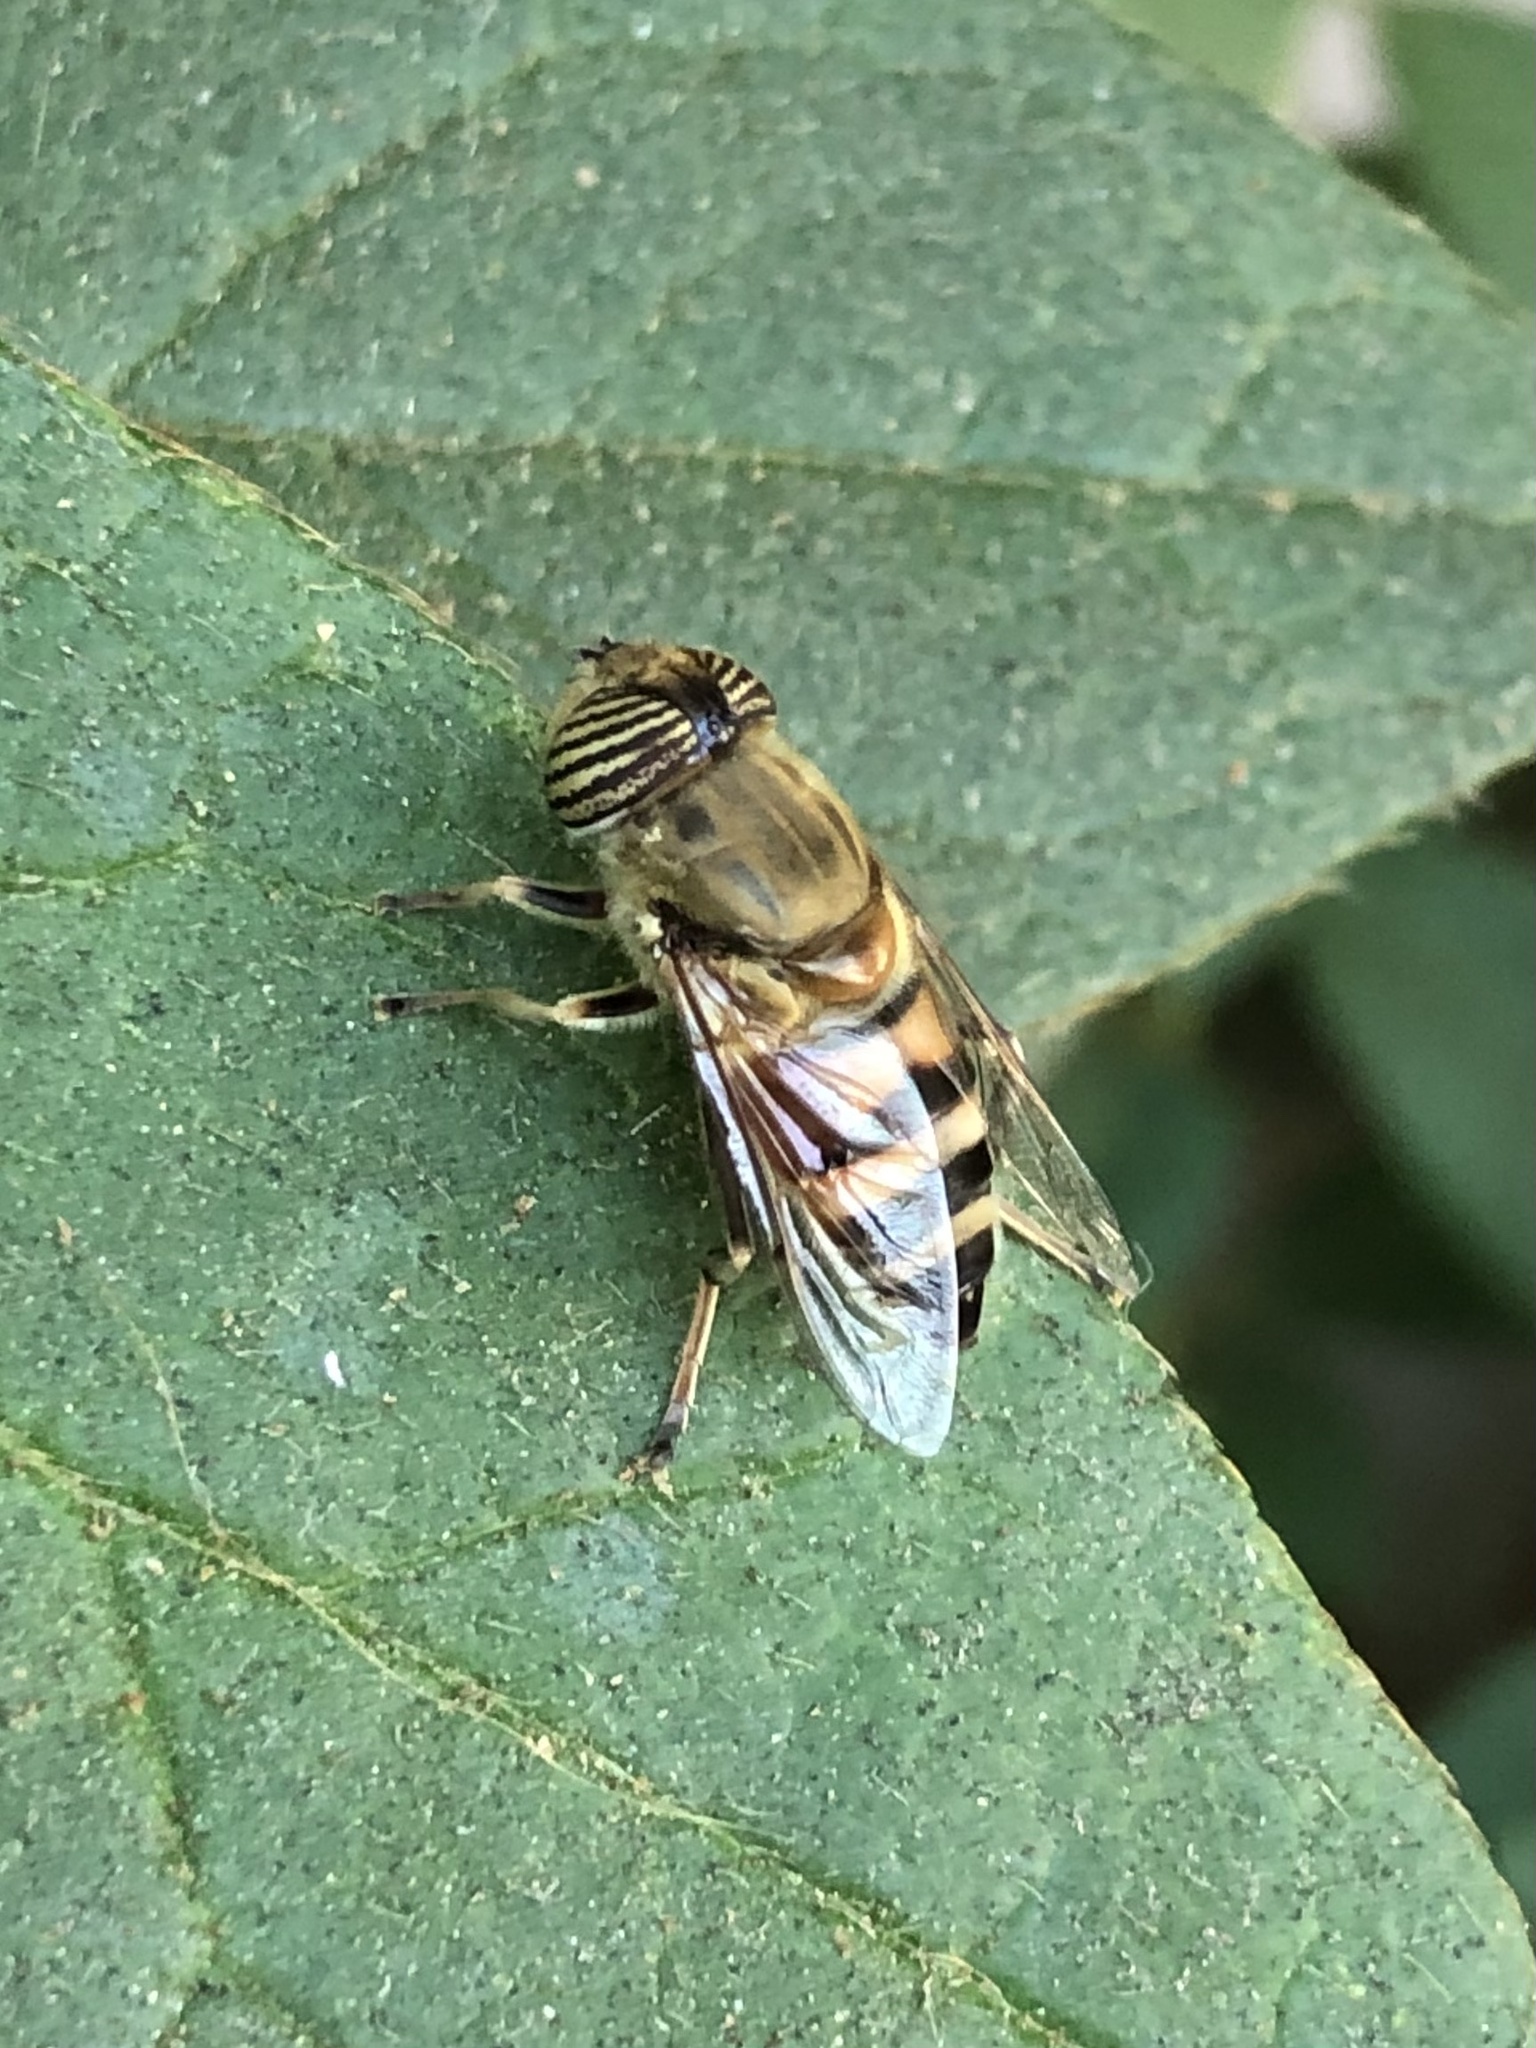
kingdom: Animalia
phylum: Arthropoda
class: Insecta
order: Diptera
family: Syrphidae
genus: Eristalinus
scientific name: Eristalinus taeniops
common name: Syrphid fly
